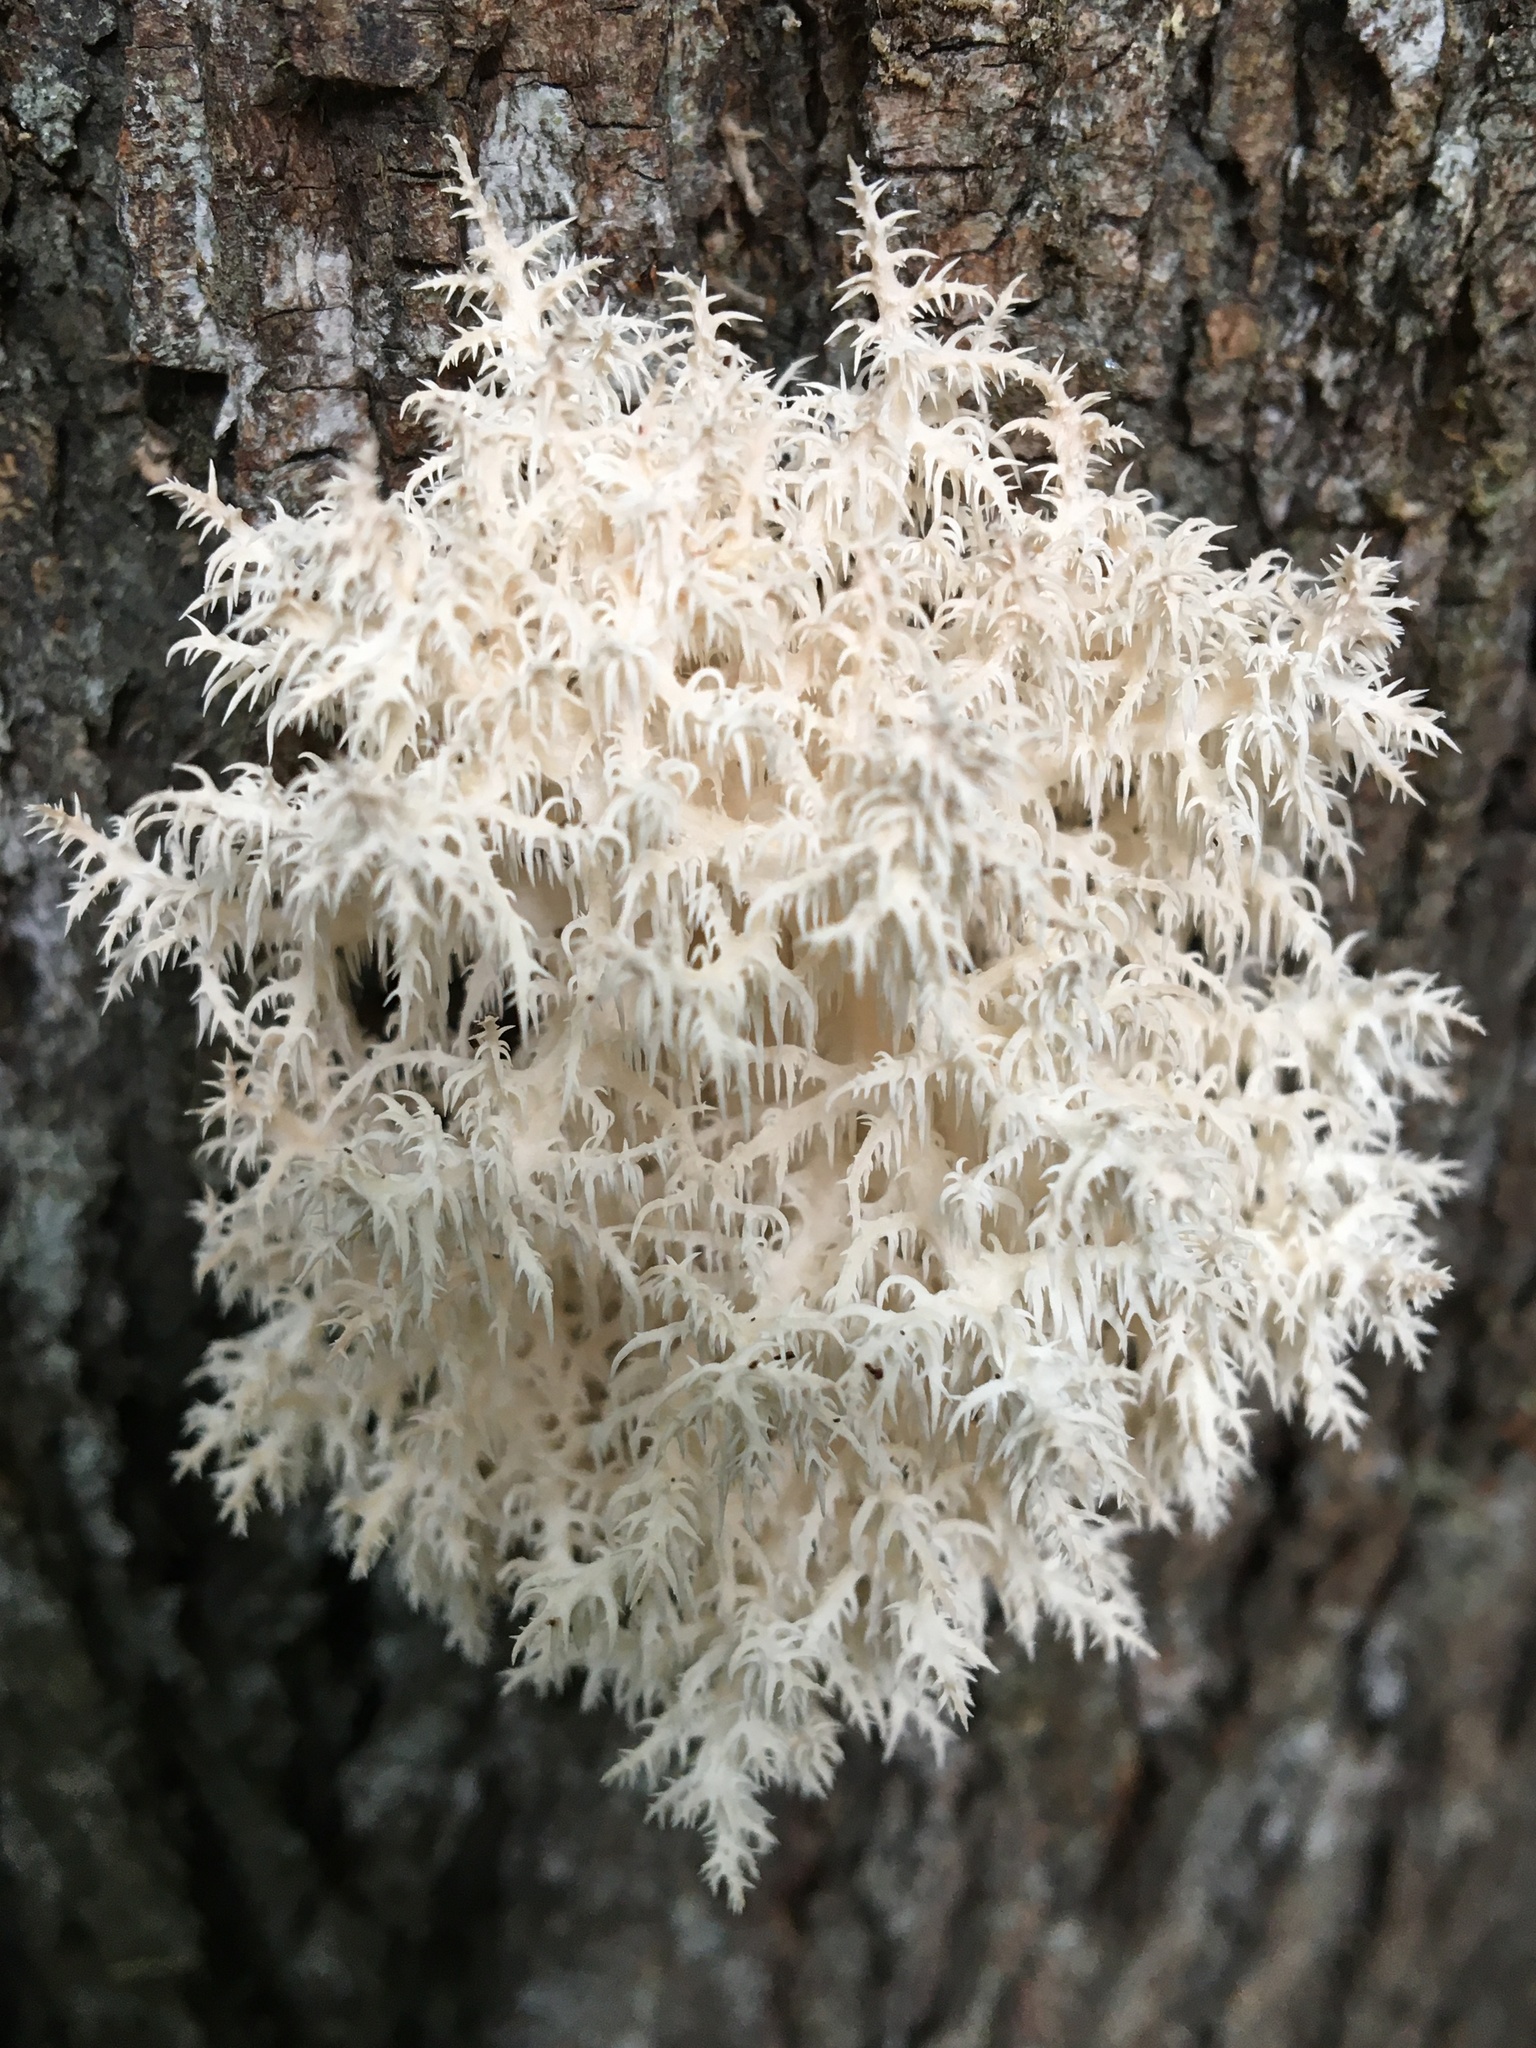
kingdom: Fungi
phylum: Basidiomycota
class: Agaricomycetes
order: Russulales
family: Hericiaceae
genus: Hericium
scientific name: Hericium coralloides
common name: Coral tooth
